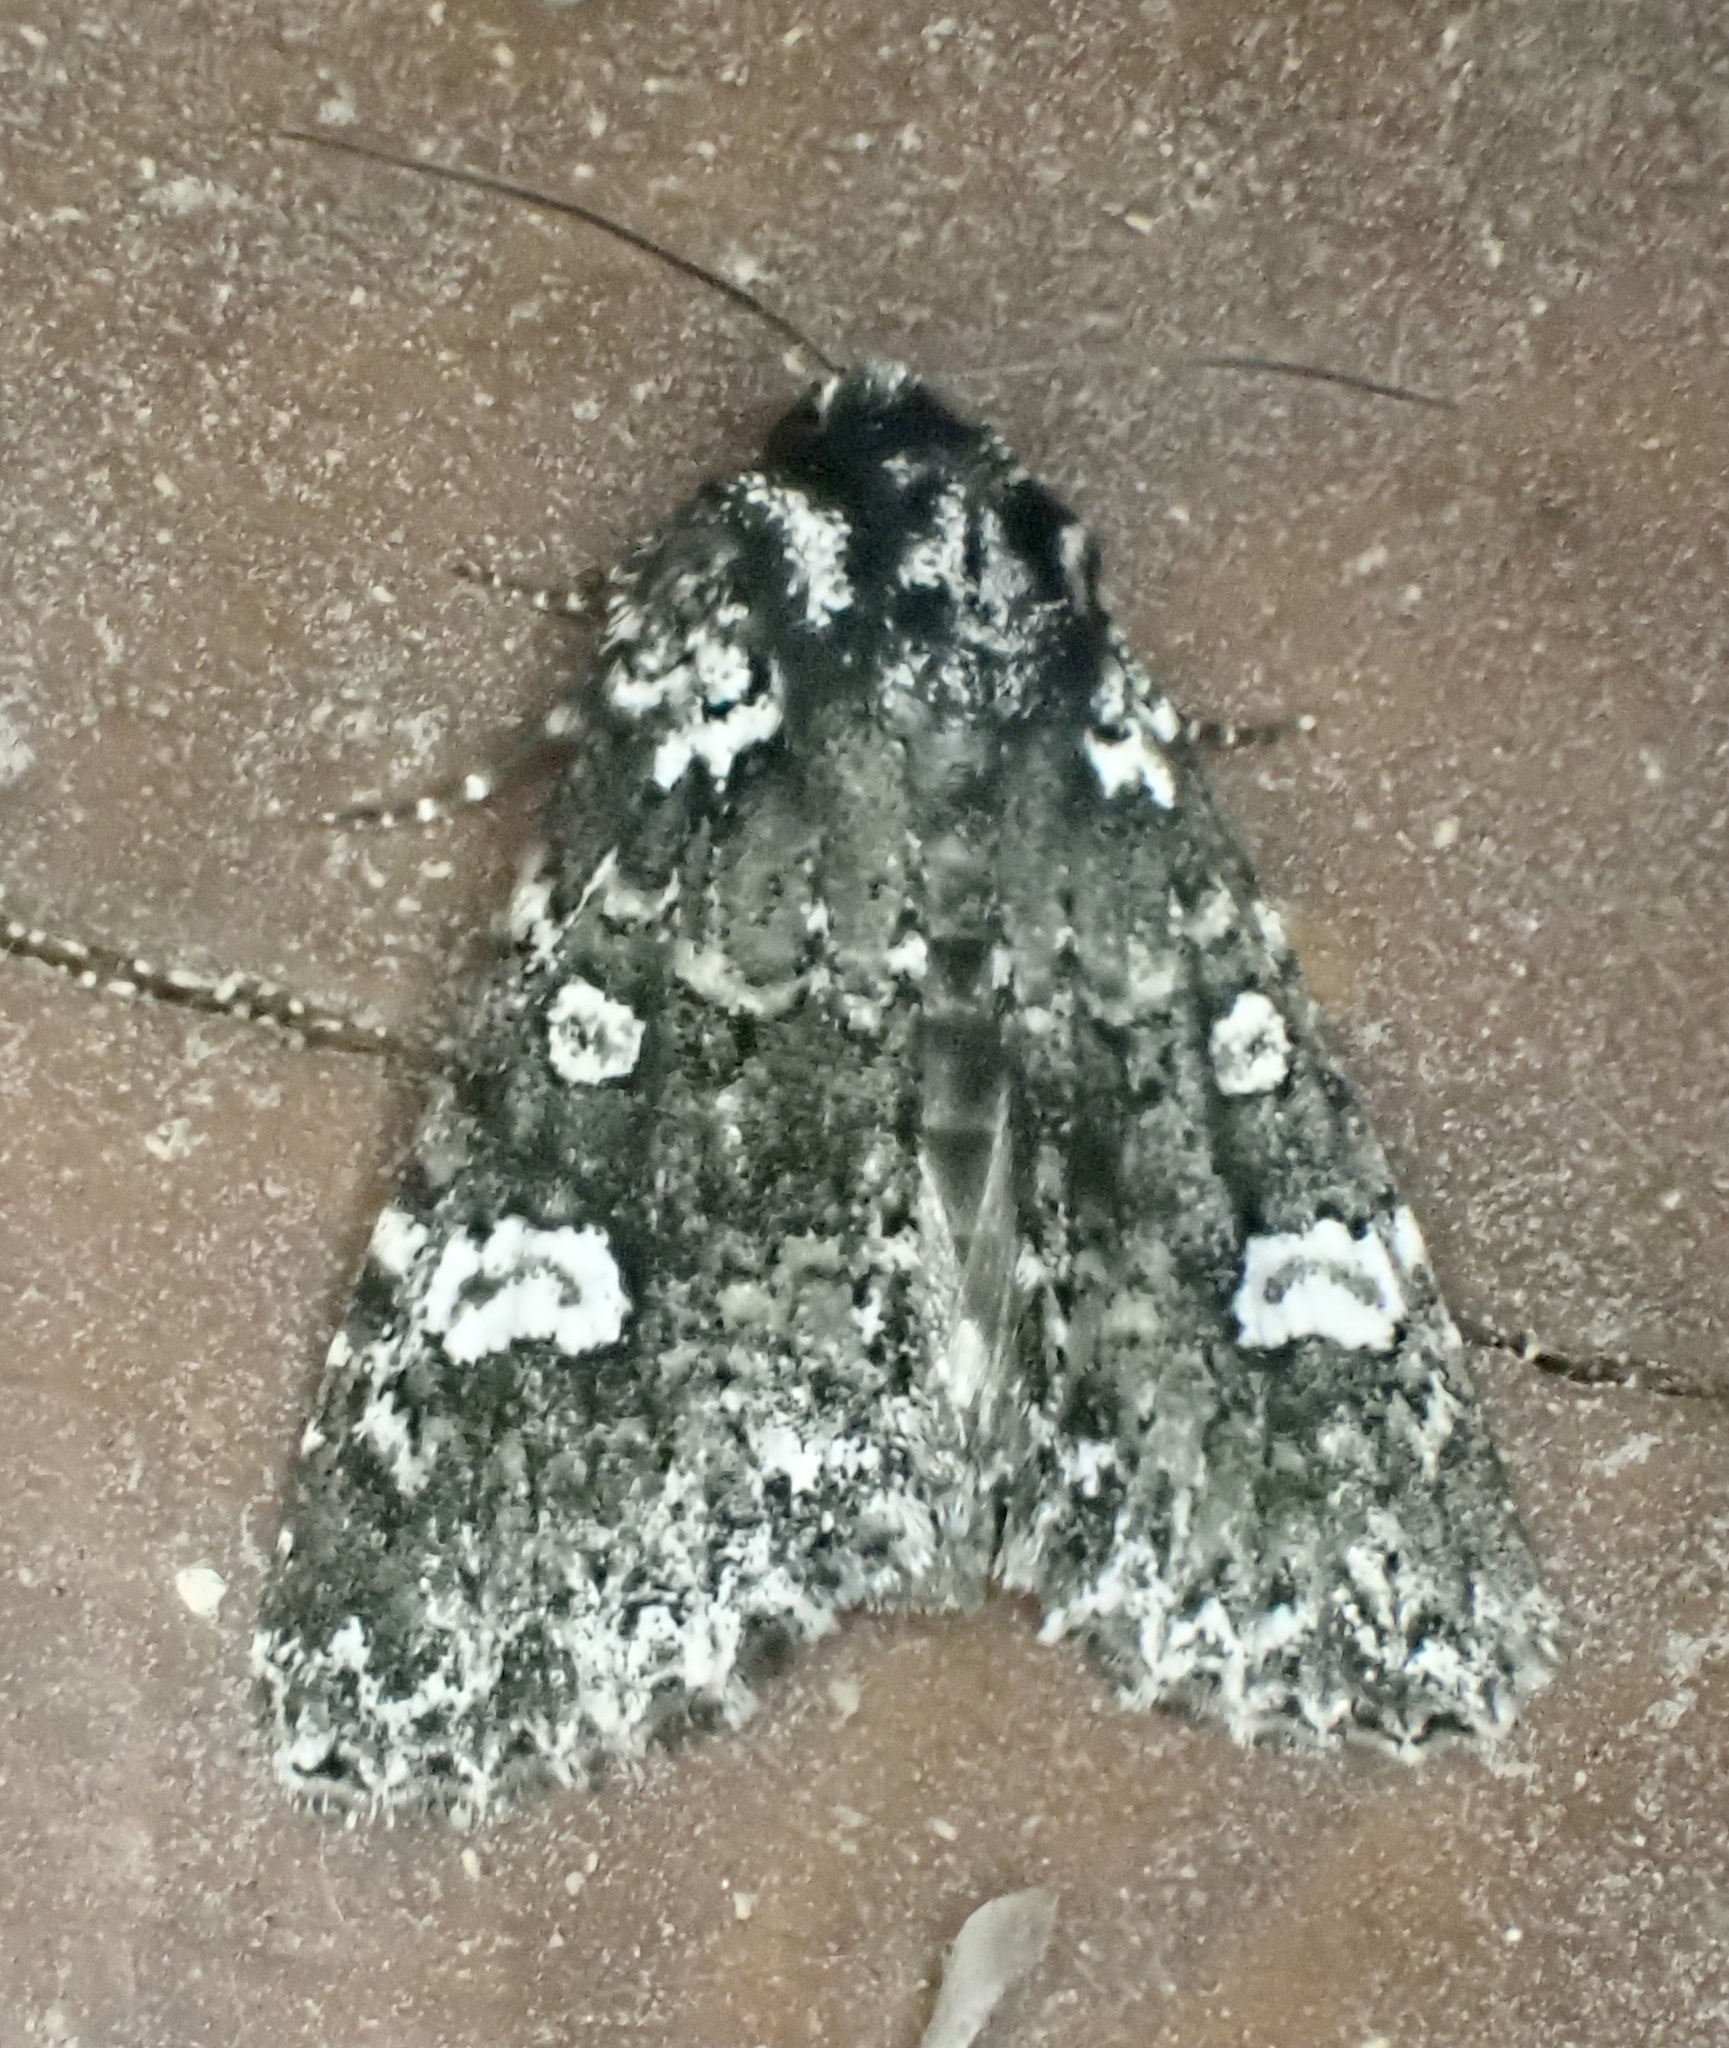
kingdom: Animalia
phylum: Arthropoda
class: Insecta
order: Lepidoptera
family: Noctuidae
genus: Melanchra
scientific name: Melanchra adjuncta
